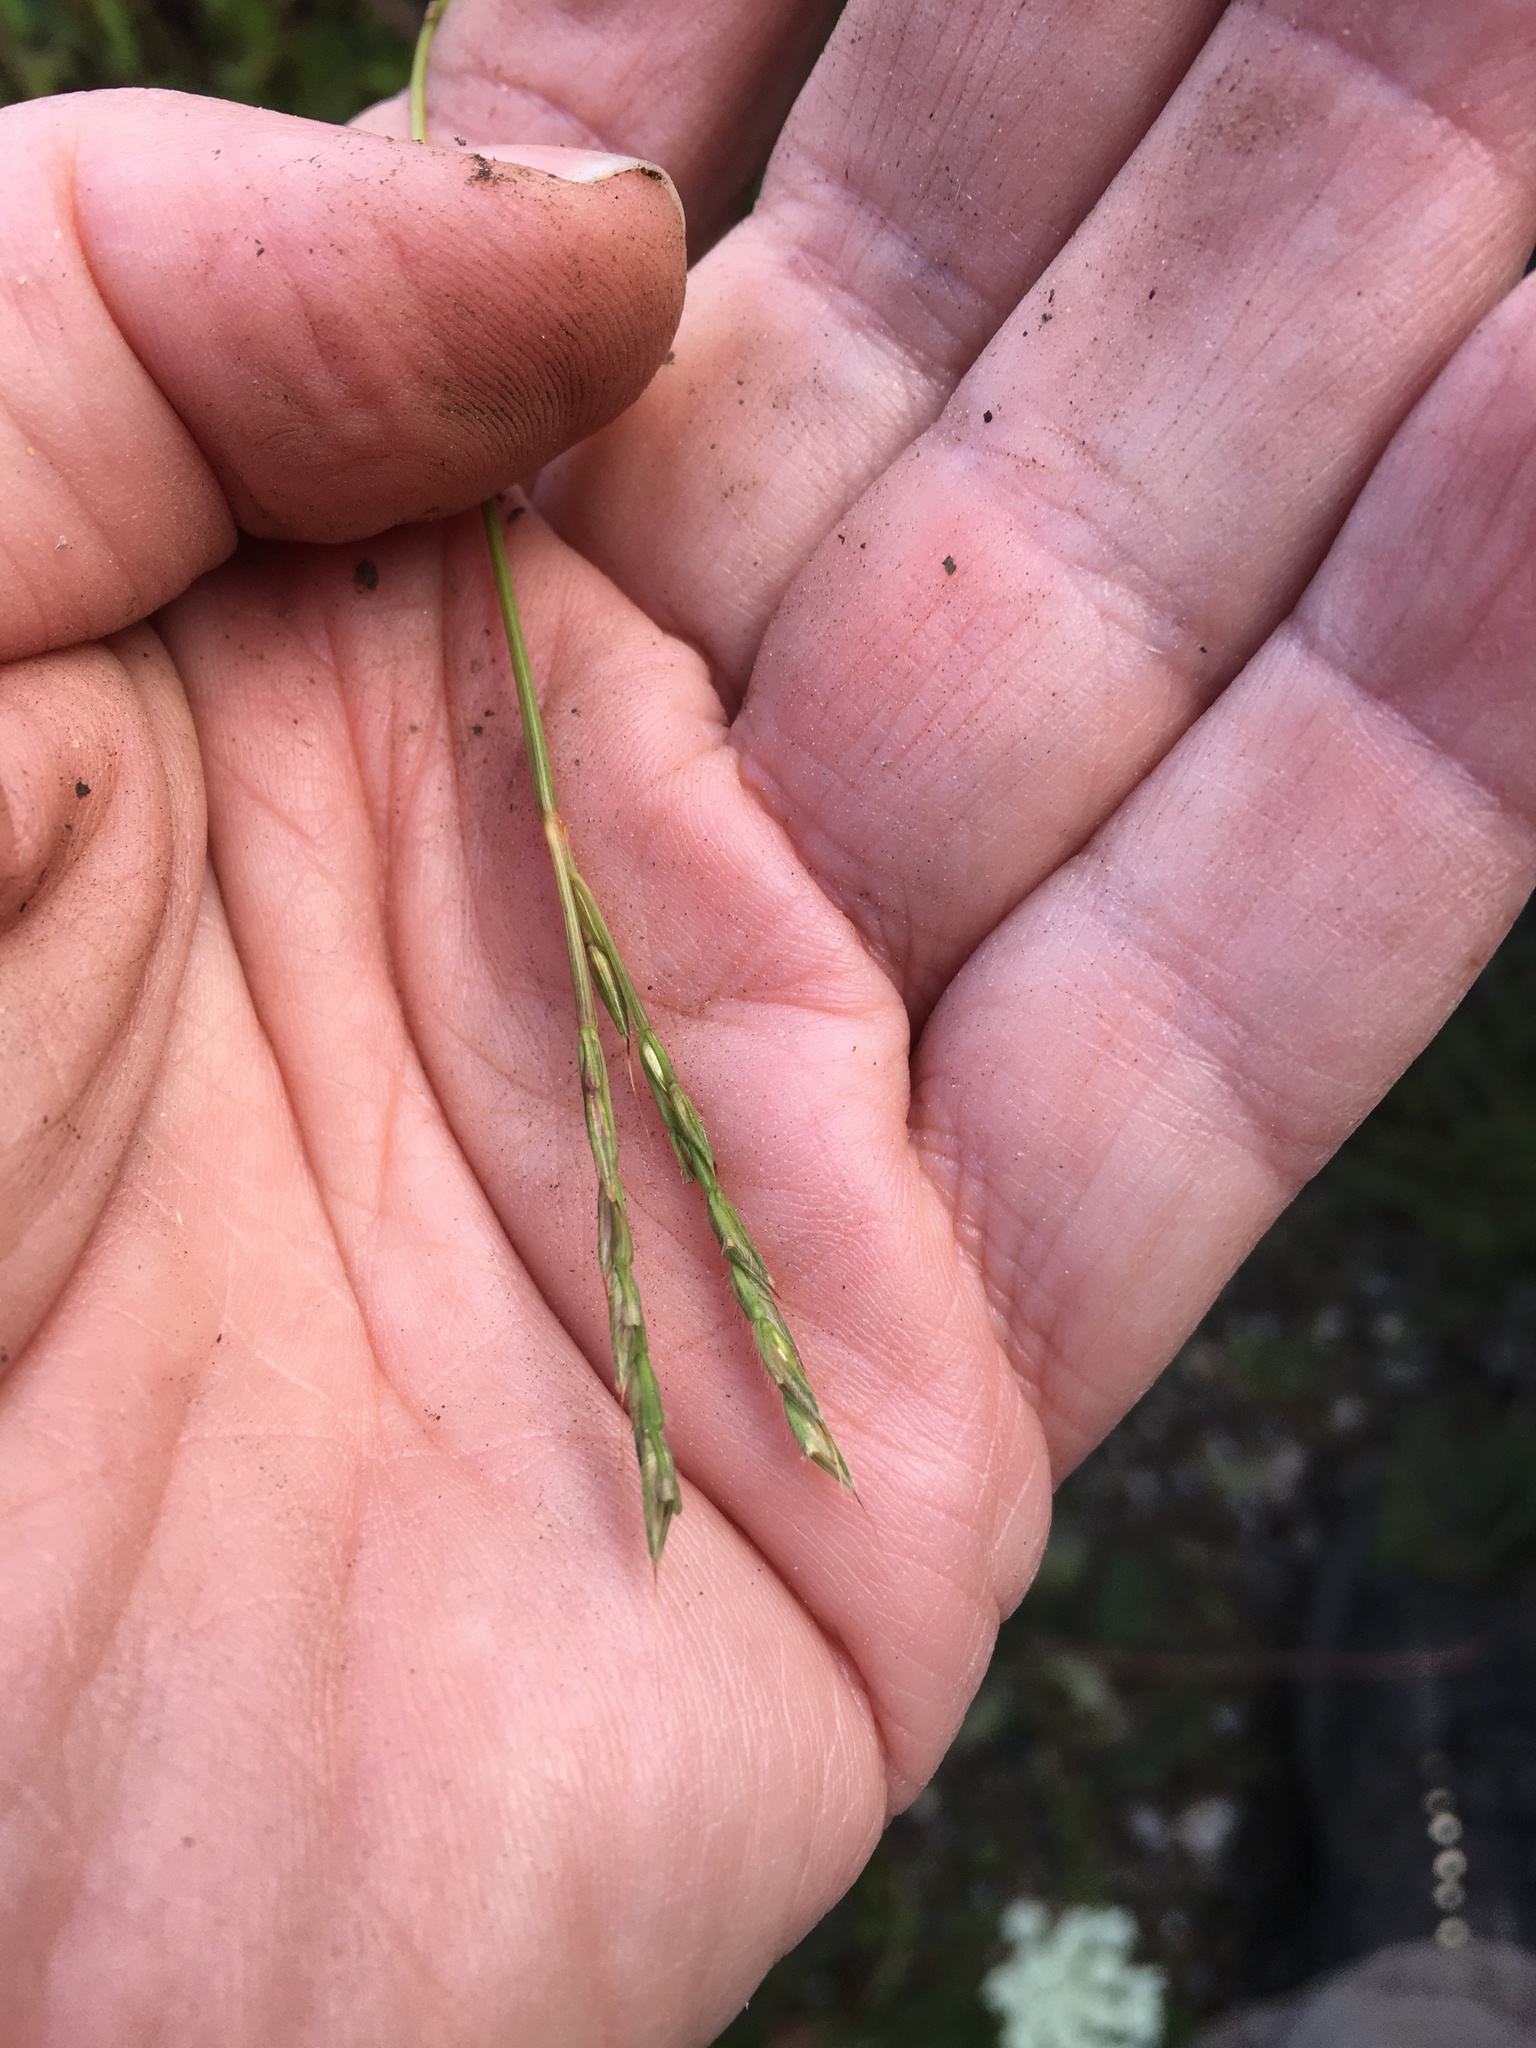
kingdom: Plantae
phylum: Tracheophyta
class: Liliopsida
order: Poales
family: Poaceae
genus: Microstegium
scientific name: Microstegium vimineum
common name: Japanese stiltgrass
